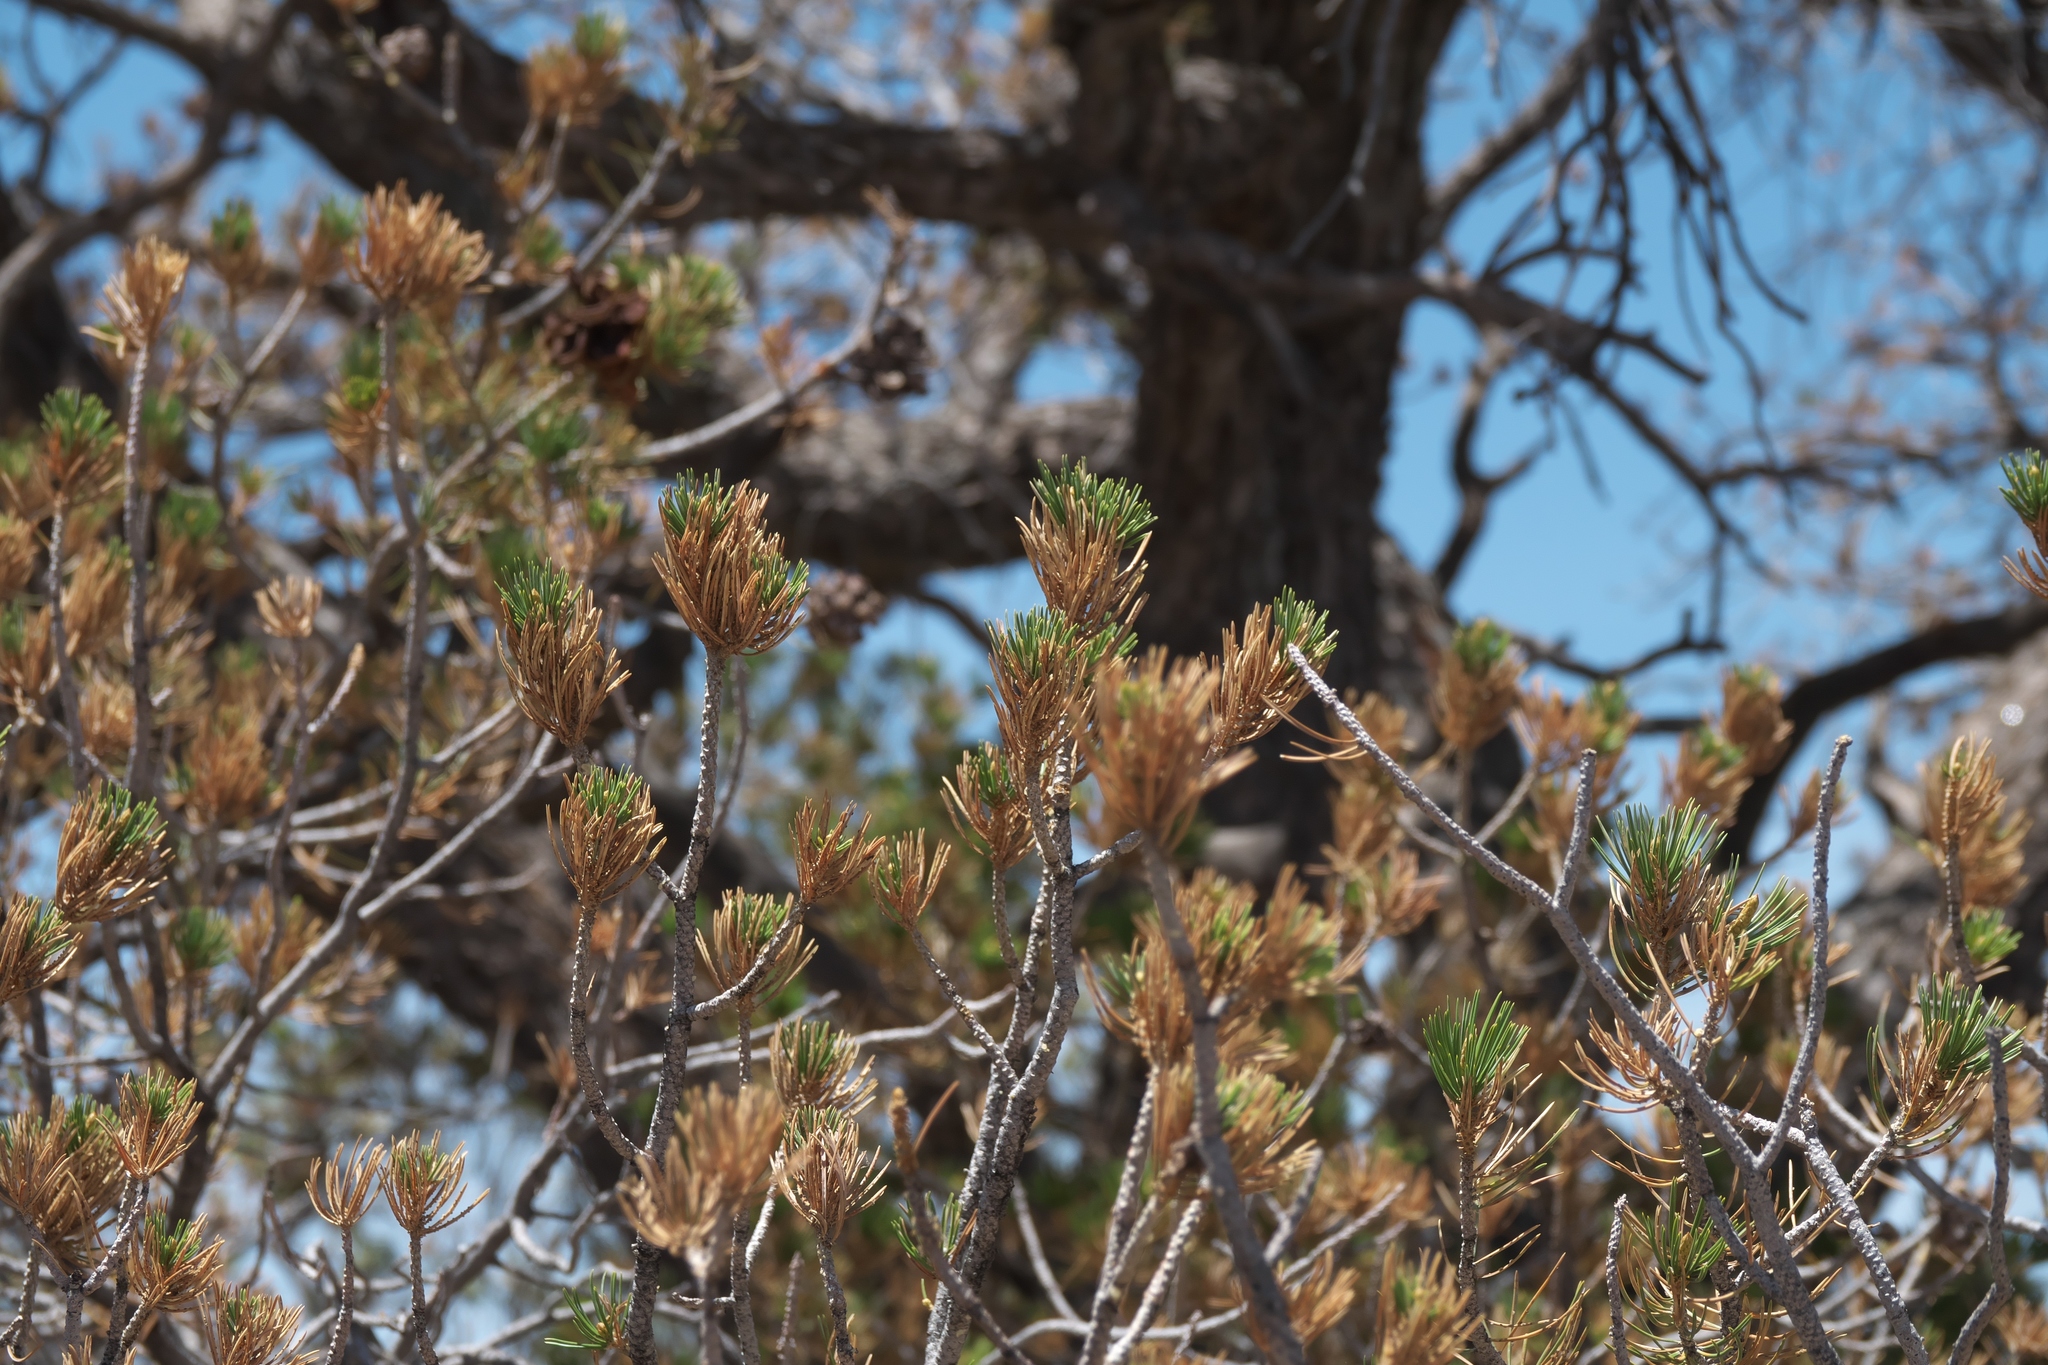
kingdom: Plantae
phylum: Tracheophyta
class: Pinopsida
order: Pinales
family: Pinaceae
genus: Pinus
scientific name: Pinus edulis
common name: Colorado pinyon
